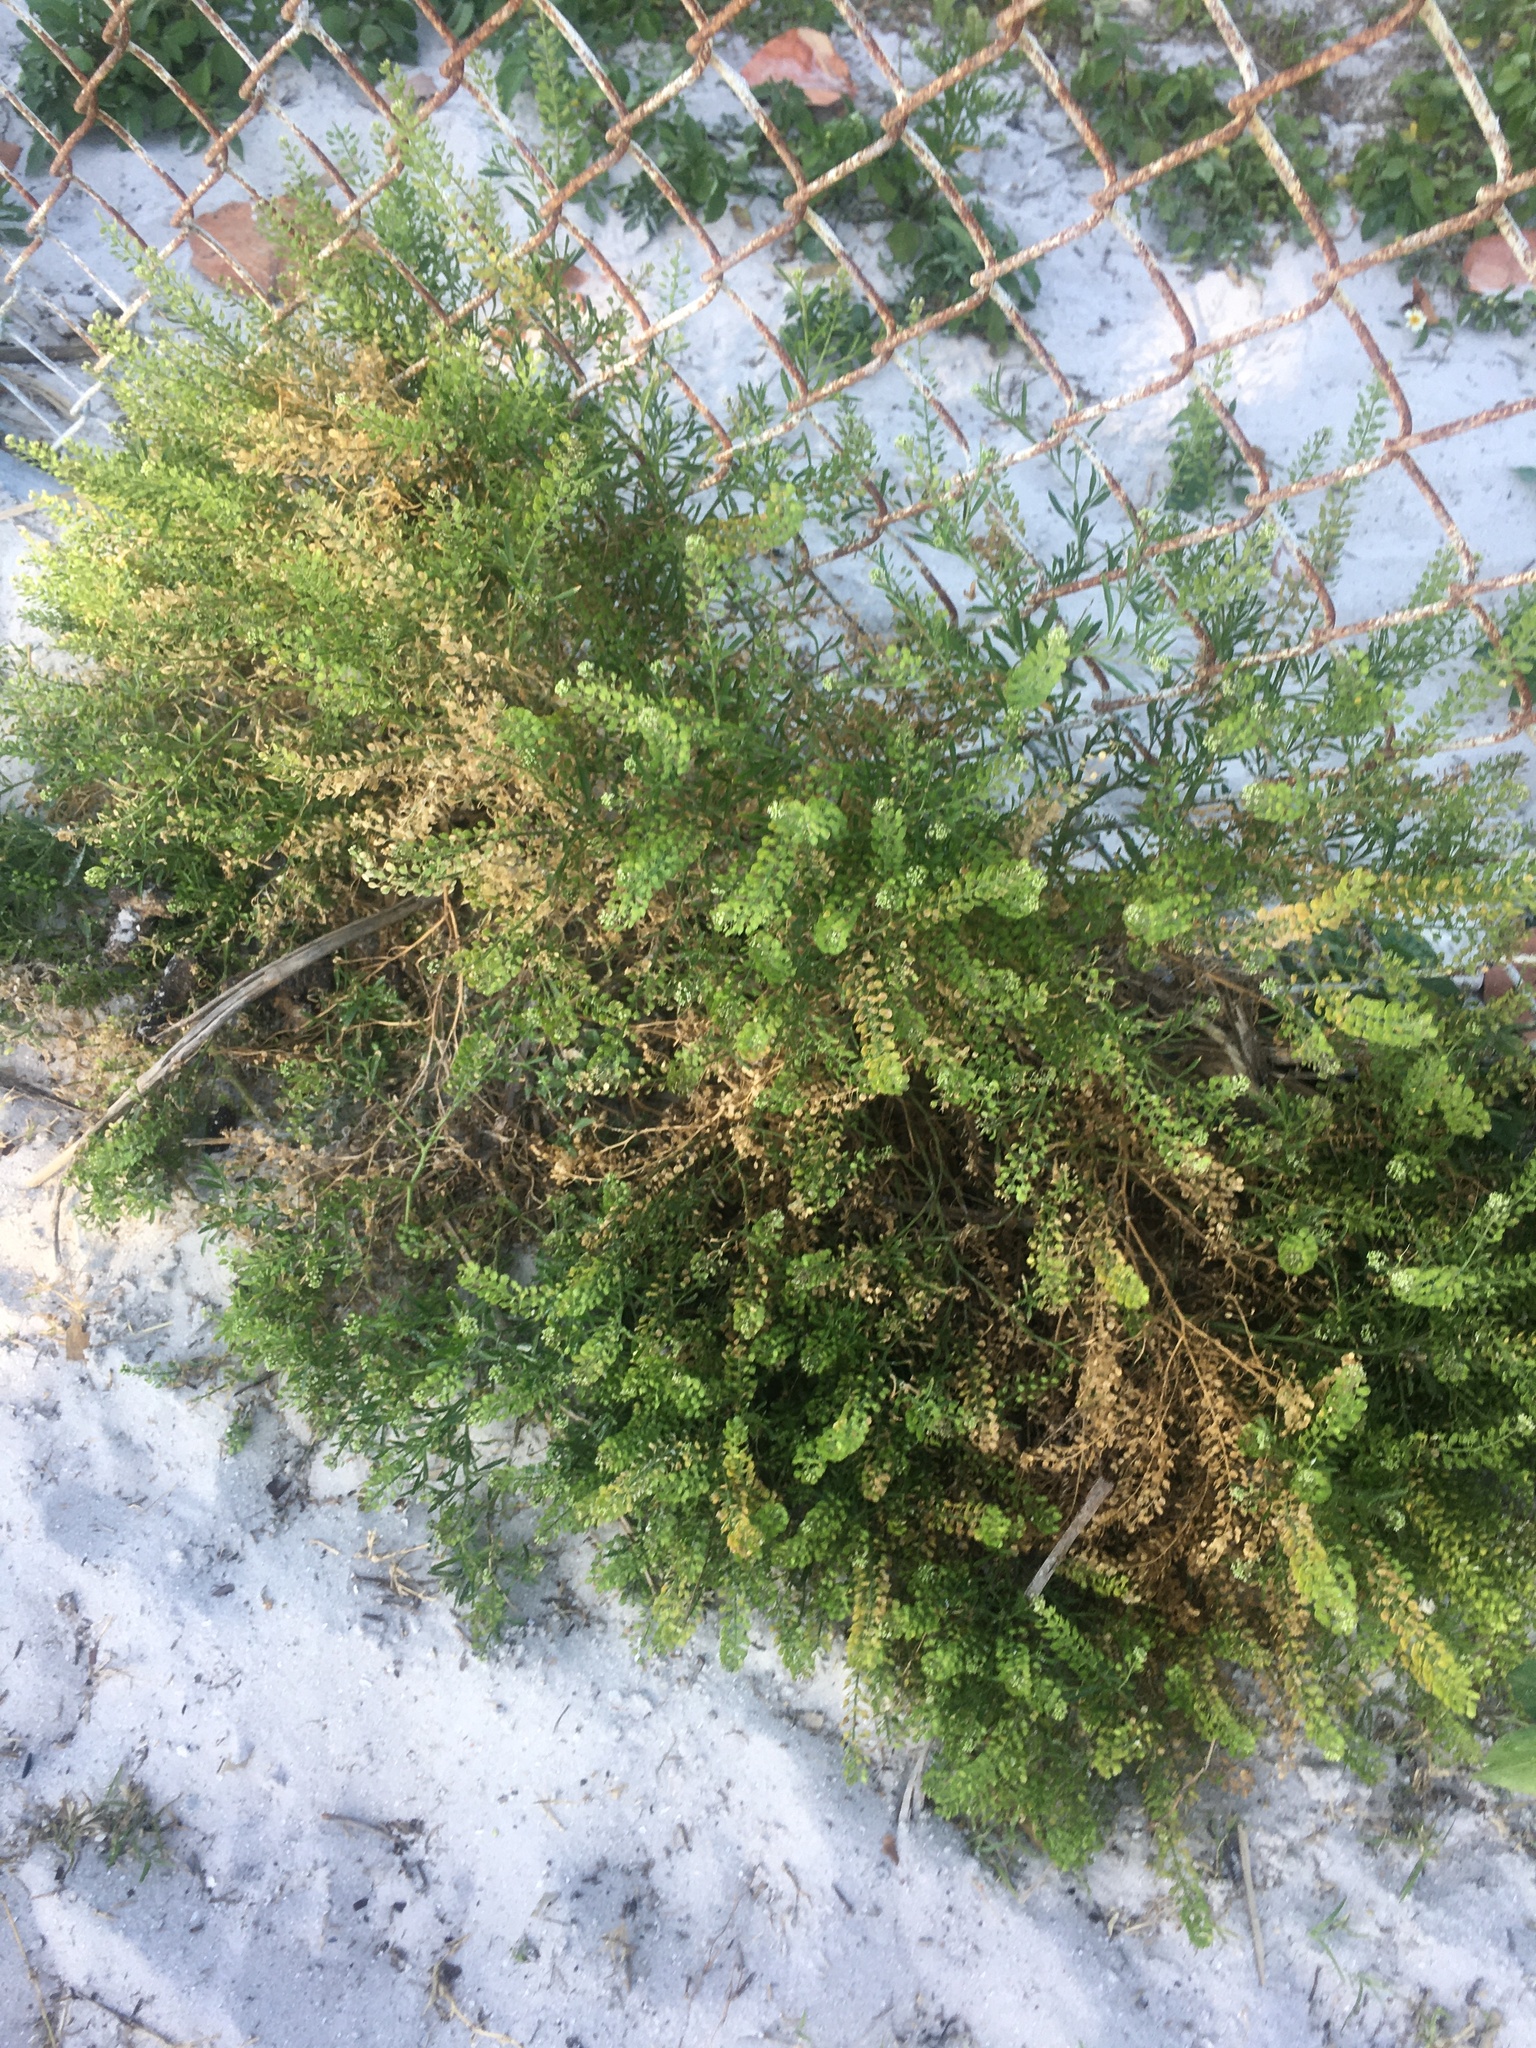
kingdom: Plantae
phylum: Tracheophyta
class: Magnoliopsida
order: Brassicales
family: Brassicaceae
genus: Lepidium
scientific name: Lepidium virginicum
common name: Least pepperwort
